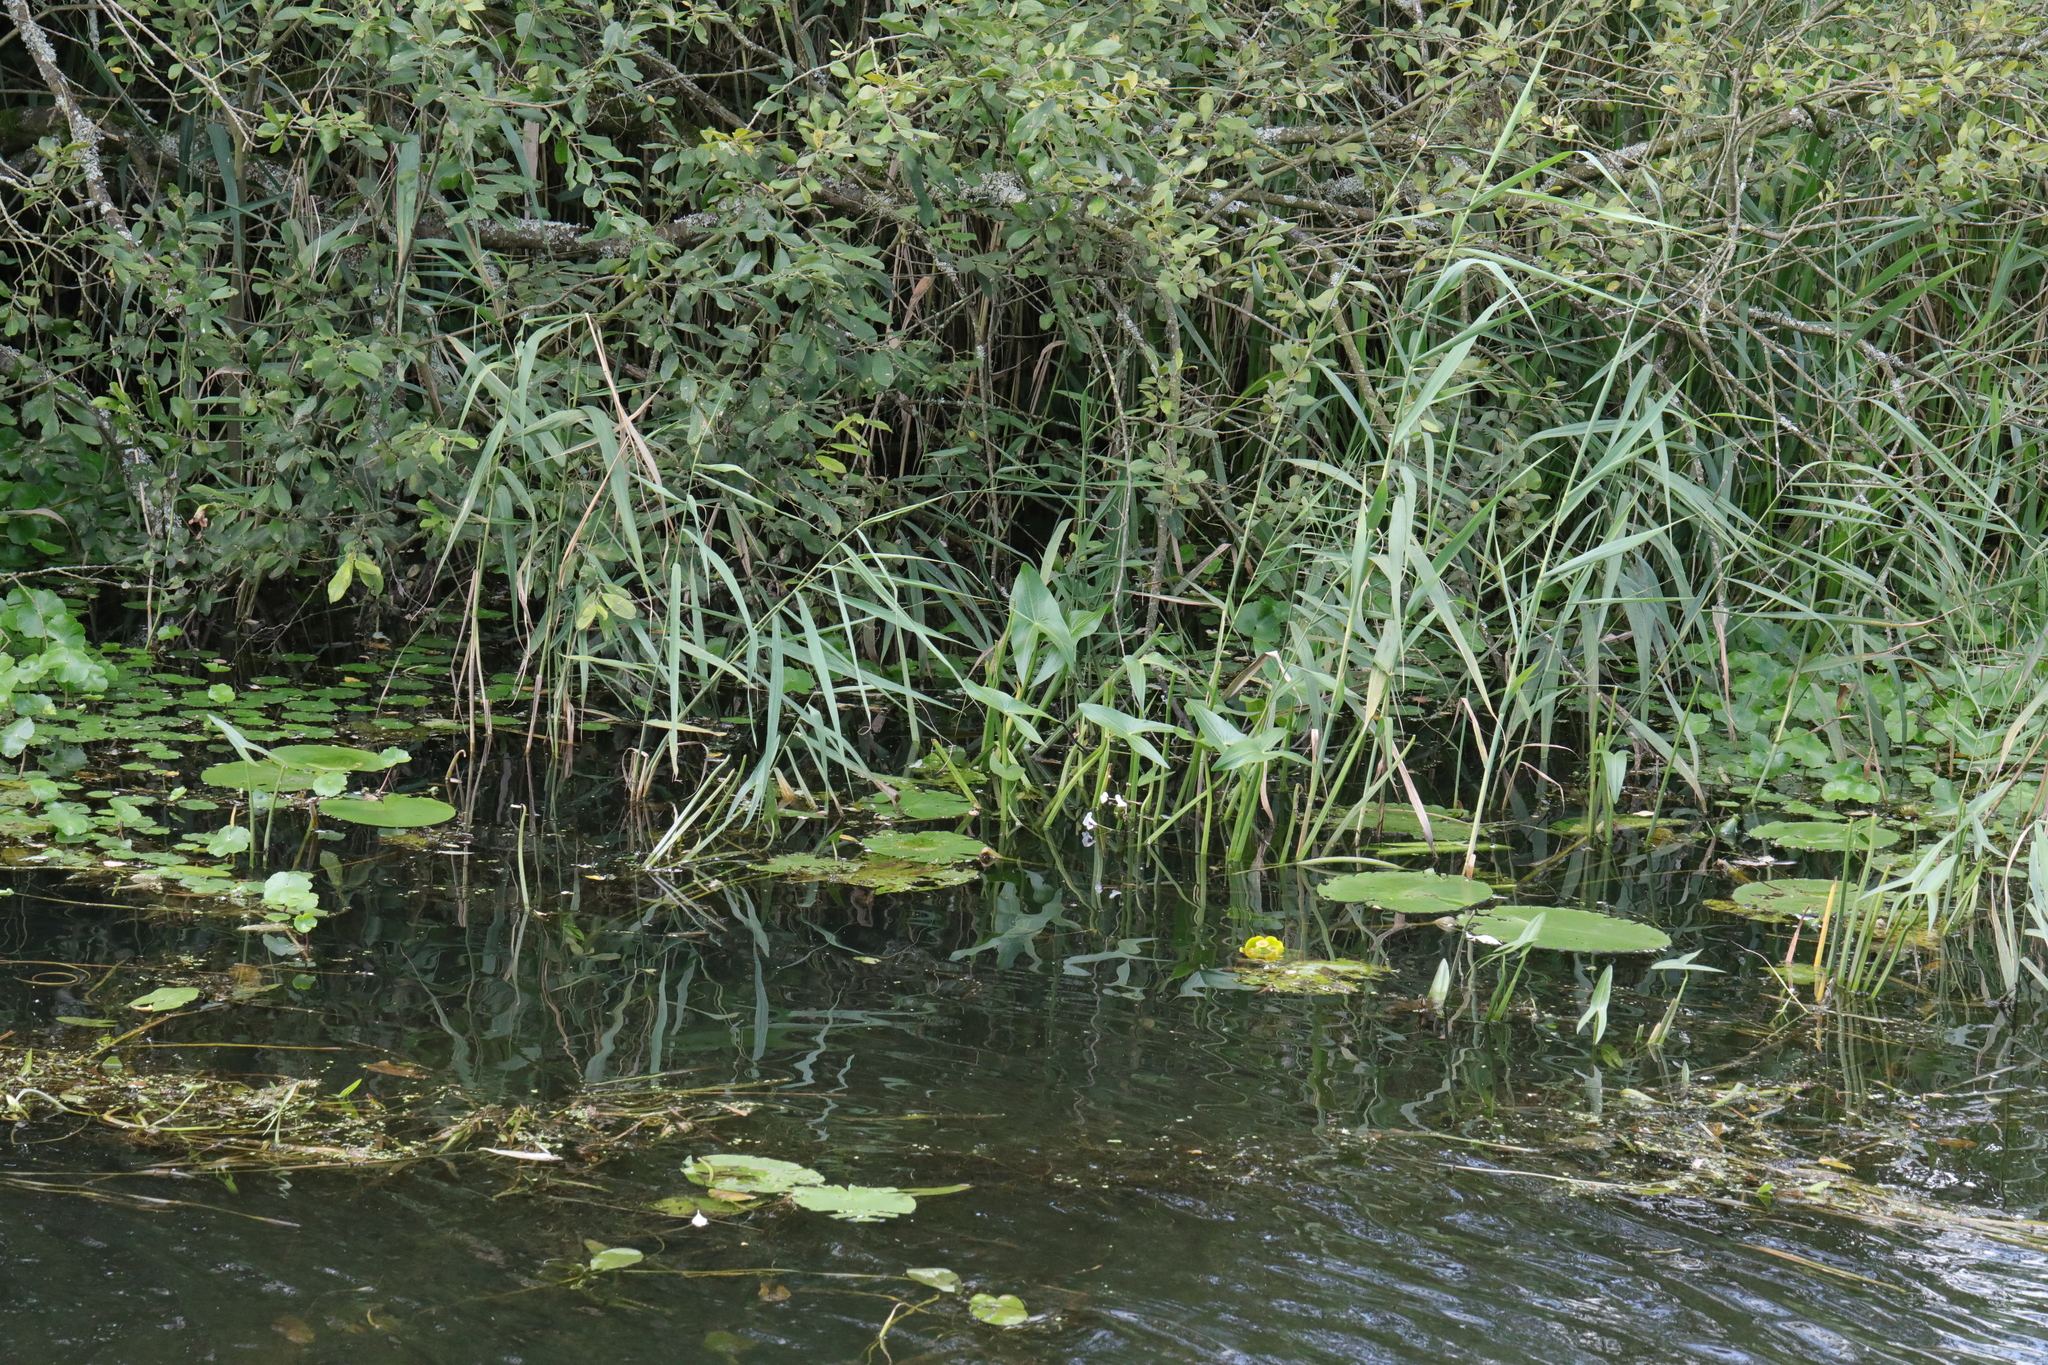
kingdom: Plantae
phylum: Tracheophyta
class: Liliopsida
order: Alismatales
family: Alismataceae
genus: Sagittaria
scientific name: Sagittaria sagittifolia
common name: Arrowhead
